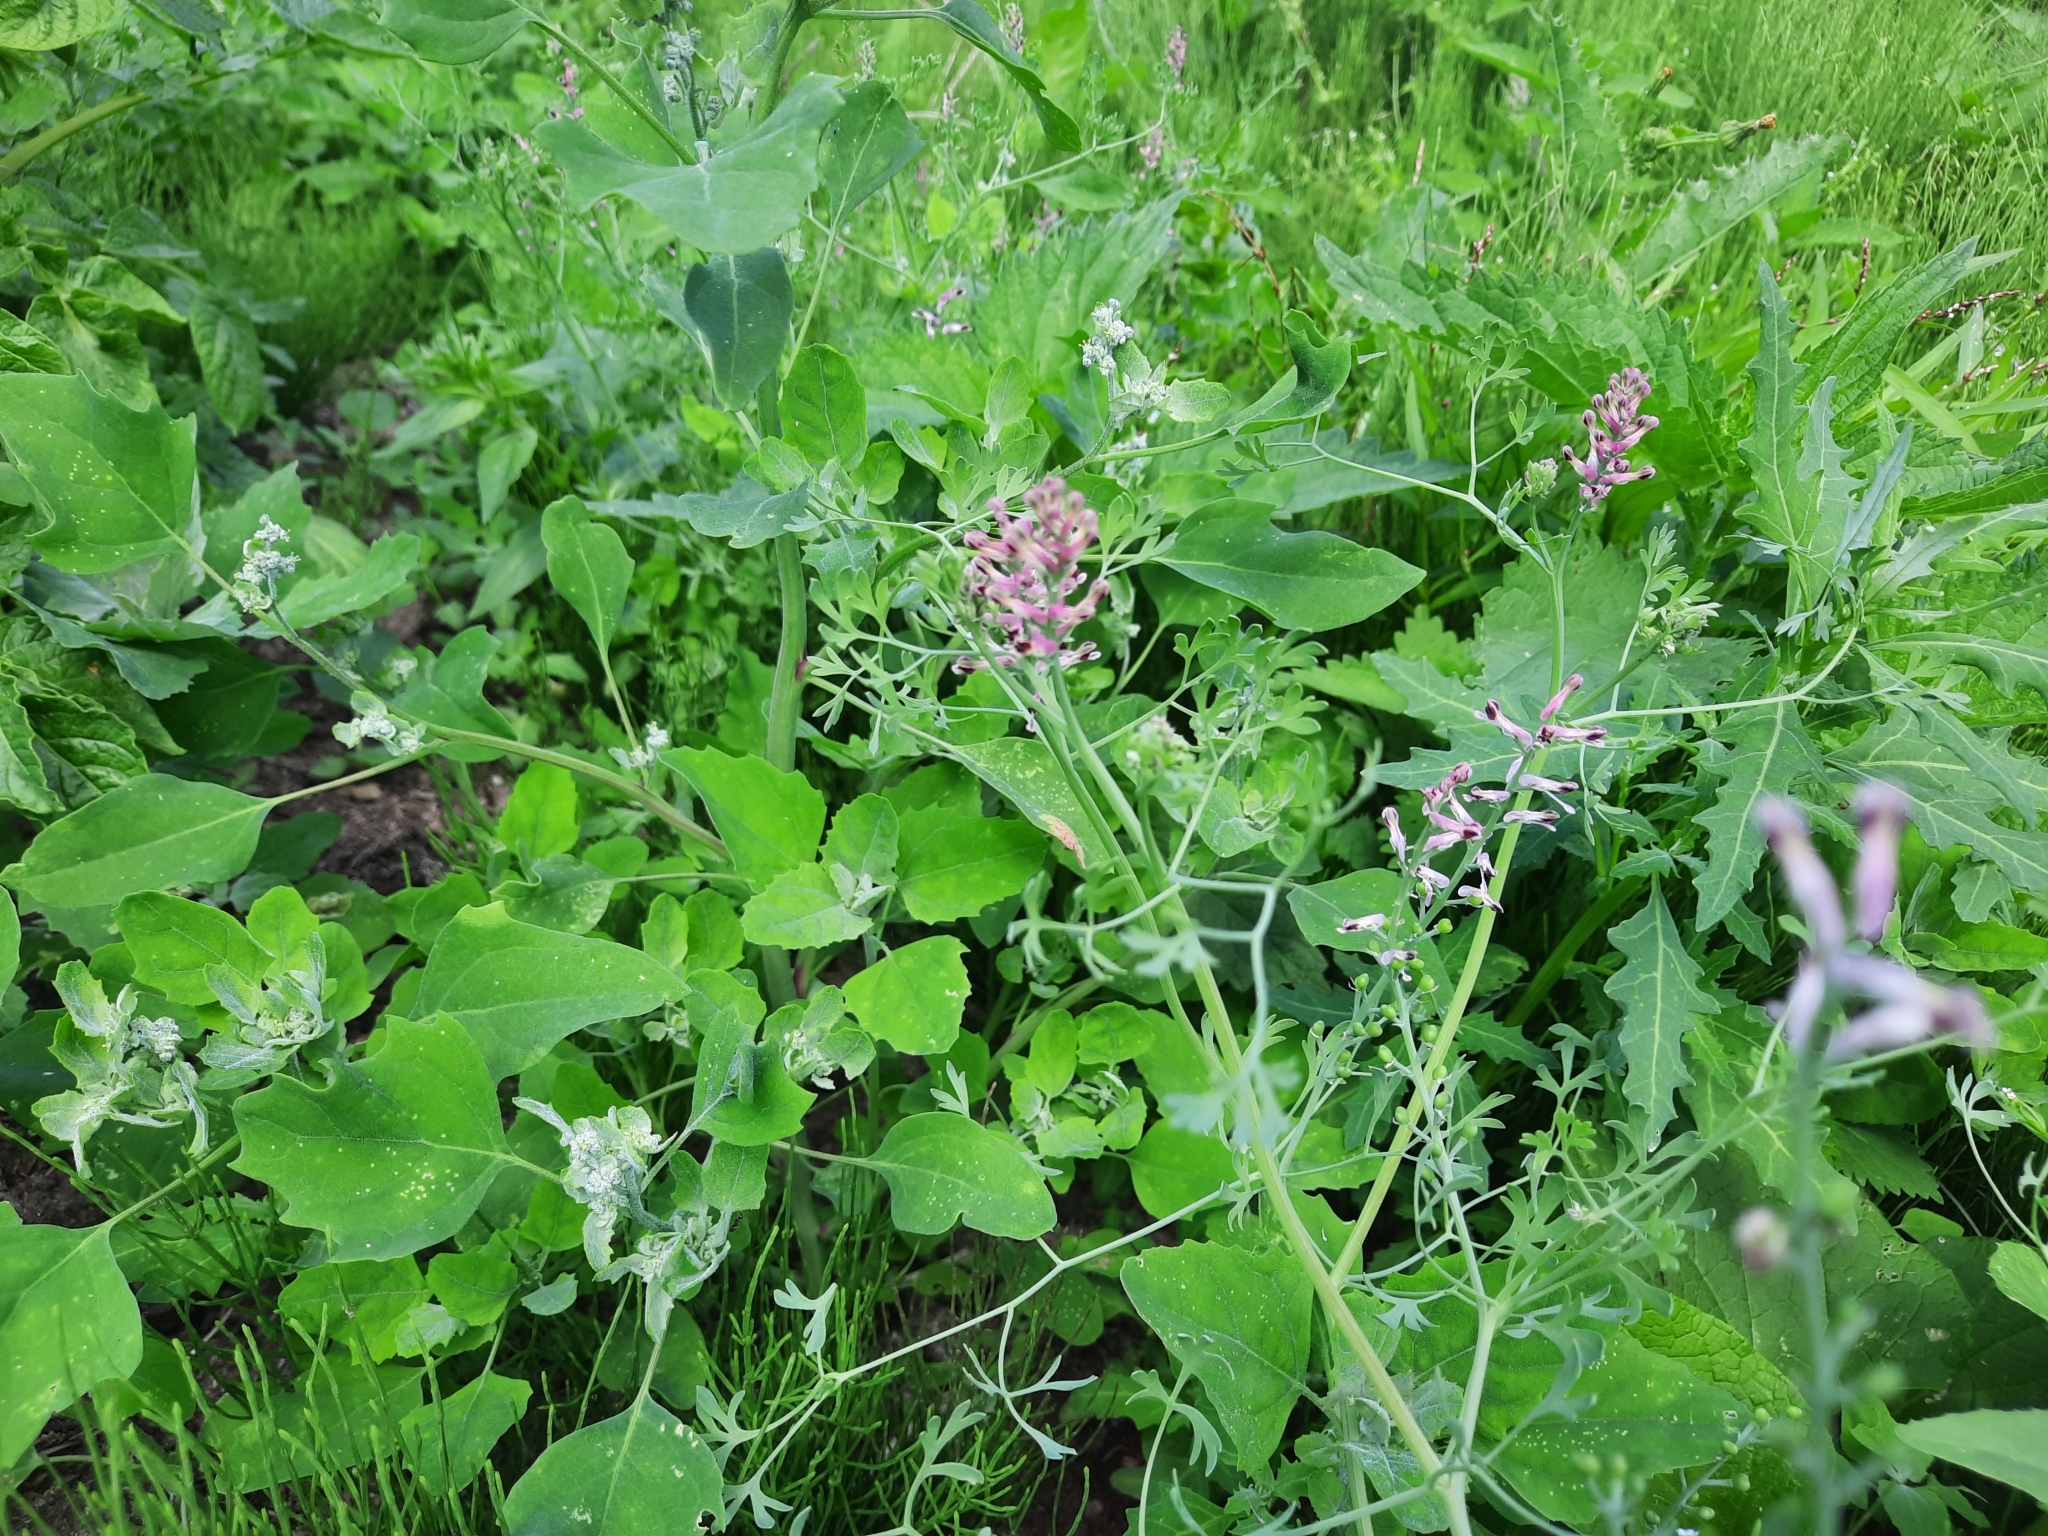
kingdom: Plantae
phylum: Tracheophyta
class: Magnoliopsida
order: Ranunculales
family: Papaveraceae
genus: Fumaria
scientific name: Fumaria officinalis
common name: Common fumitory
